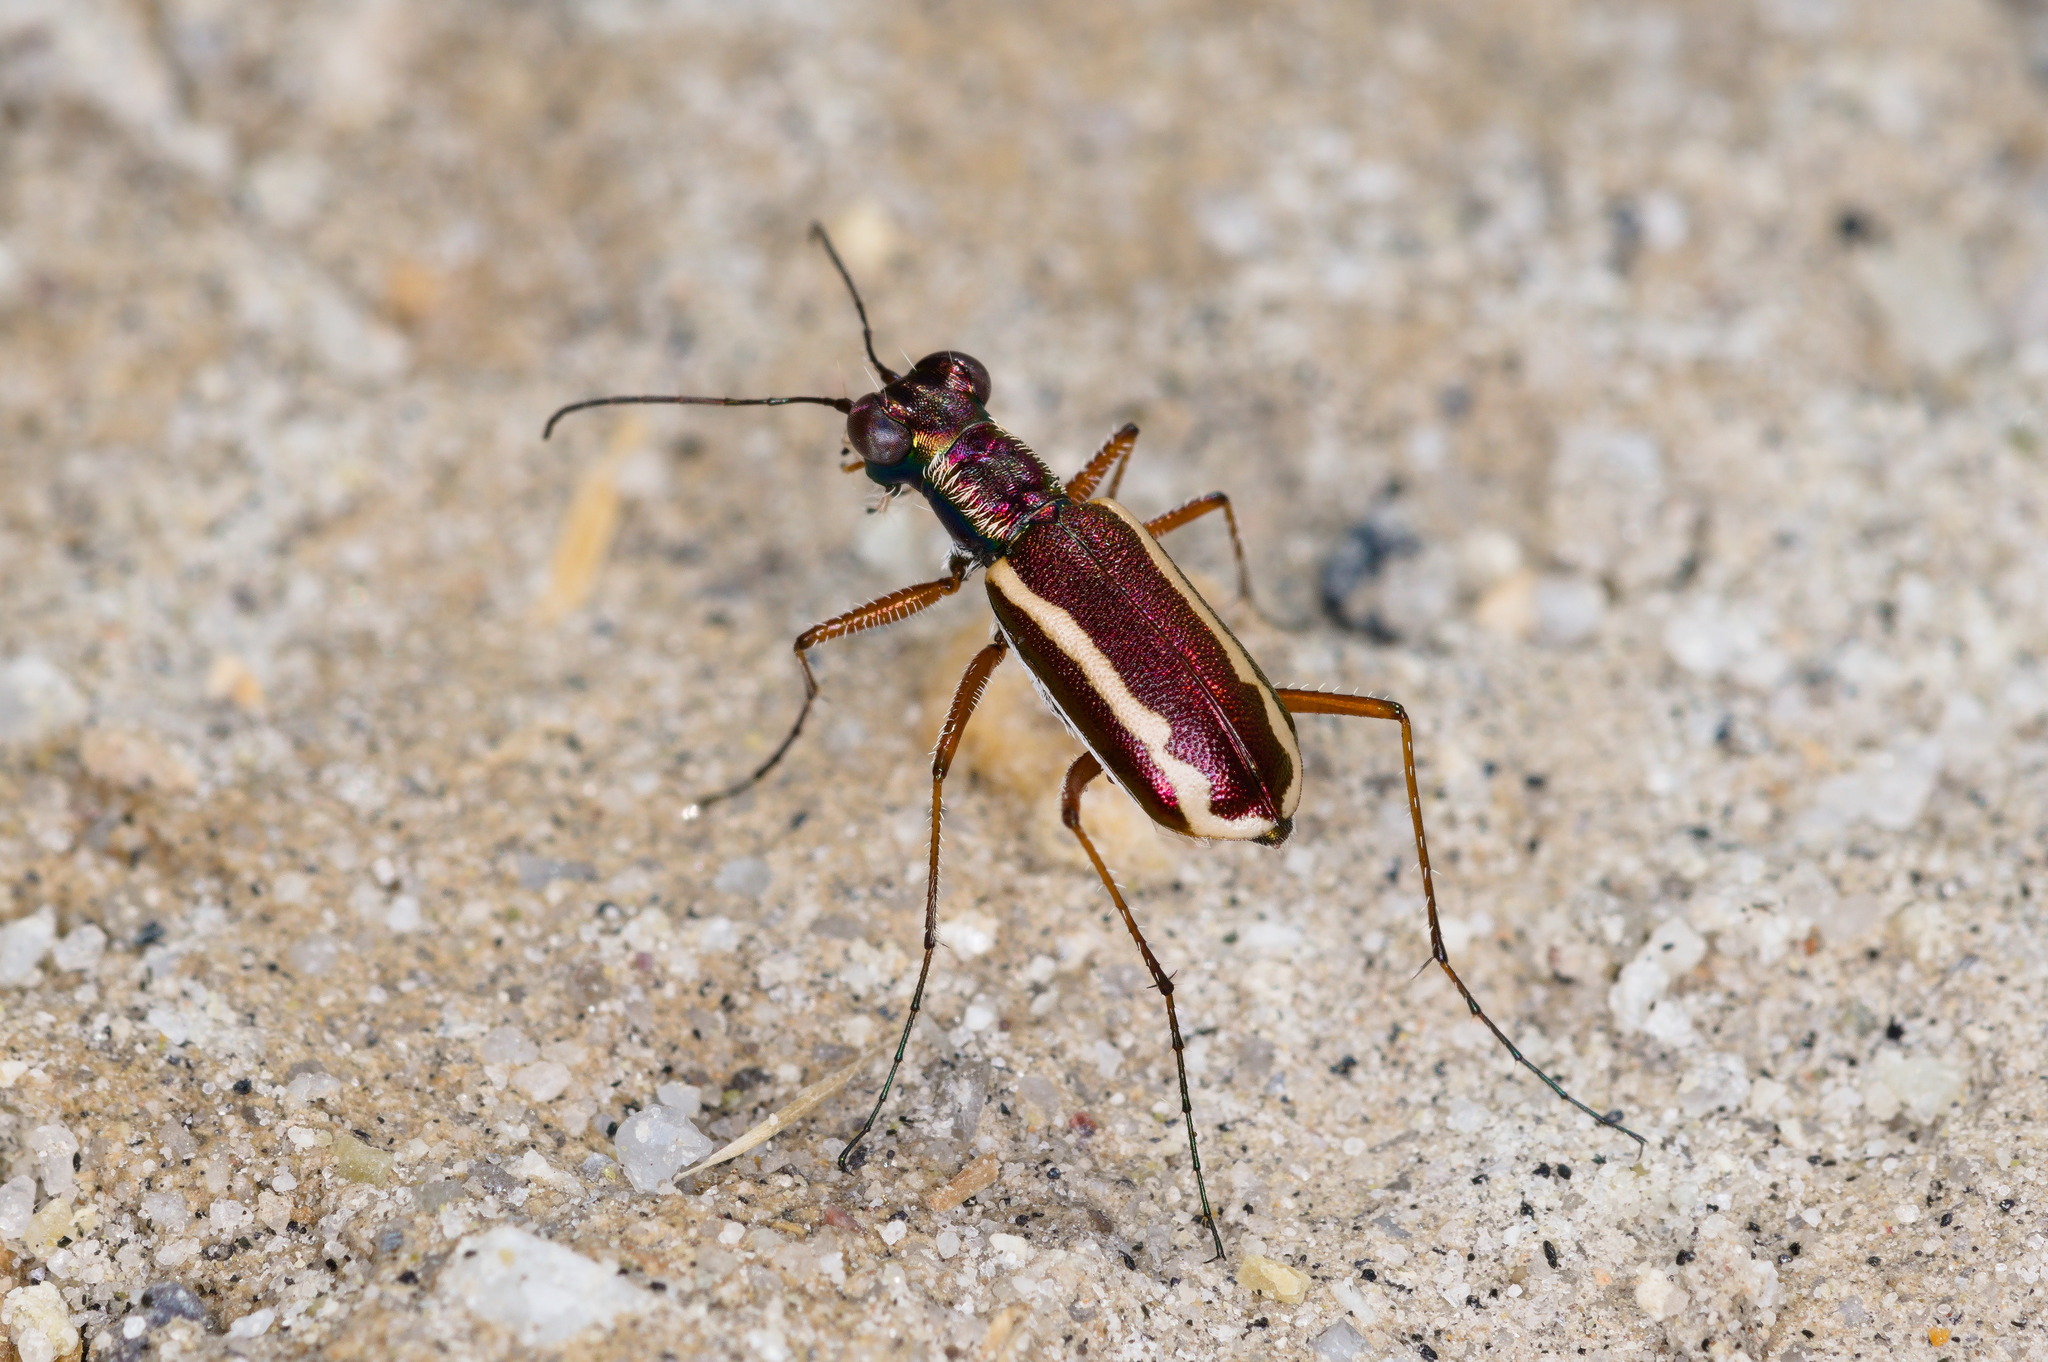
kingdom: Animalia
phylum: Arthropoda
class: Insecta
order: Coleoptera
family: Carabidae
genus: Cylindera
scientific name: Cylindera lemniscata
